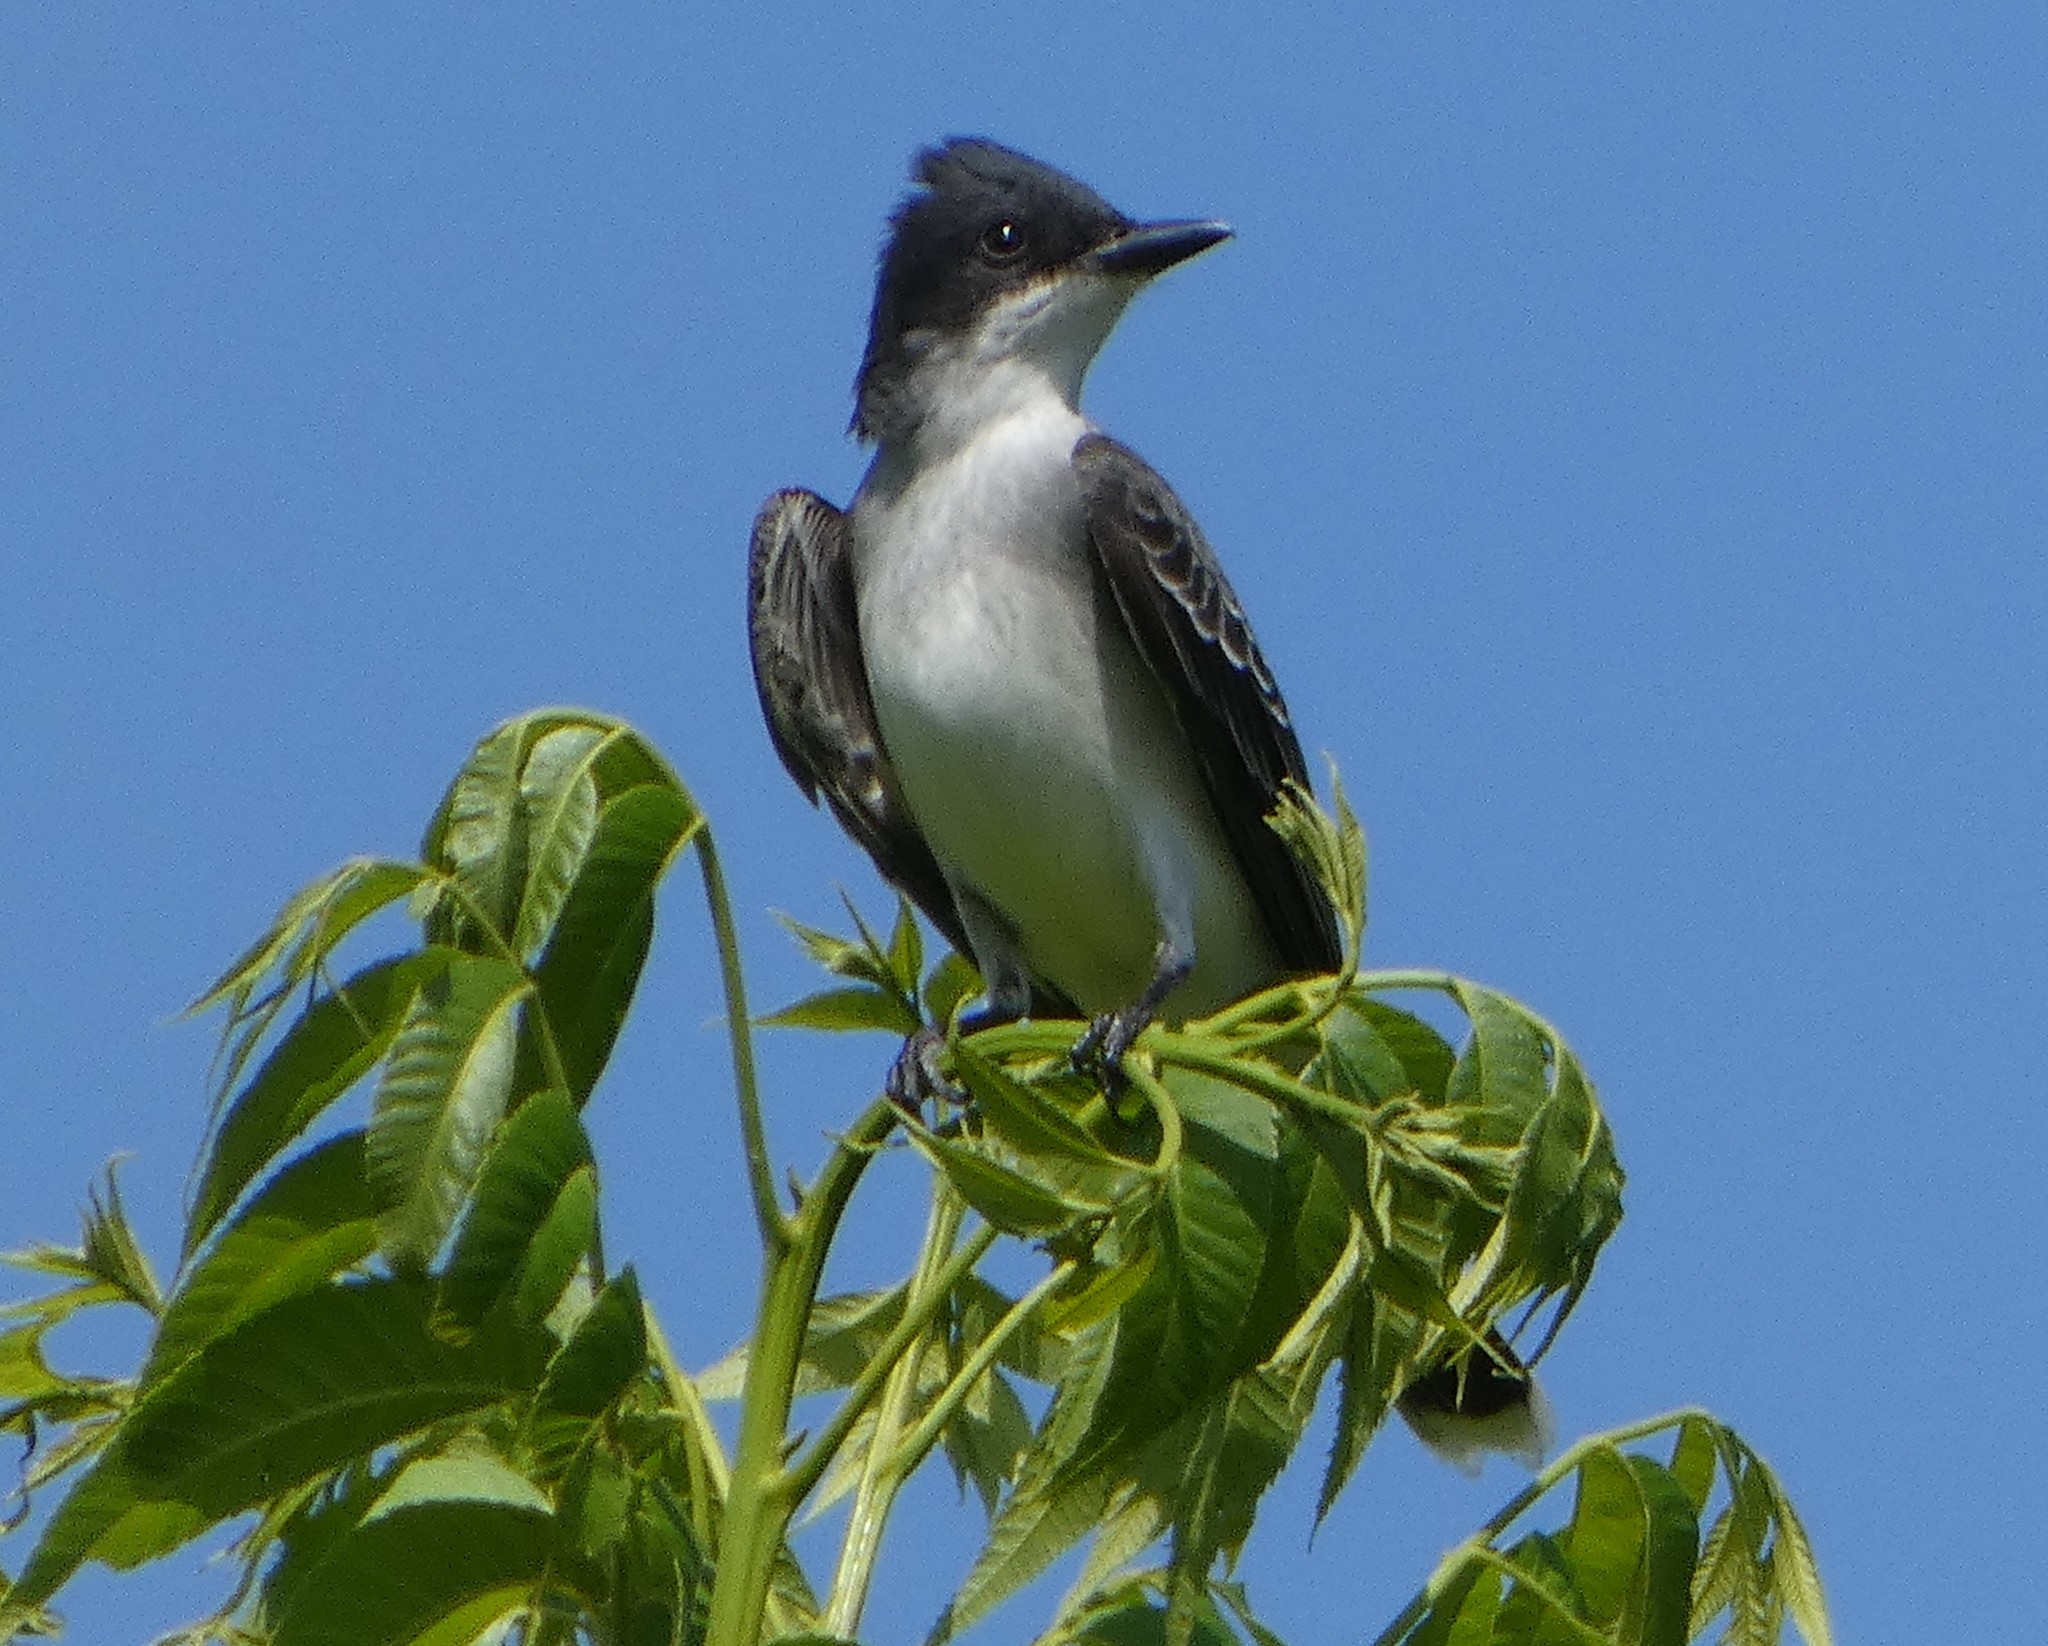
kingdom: Animalia
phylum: Chordata
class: Aves
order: Passeriformes
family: Tyrannidae
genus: Tyrannus
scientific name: Tyrannus tyrannus
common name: Eastern kingbird
